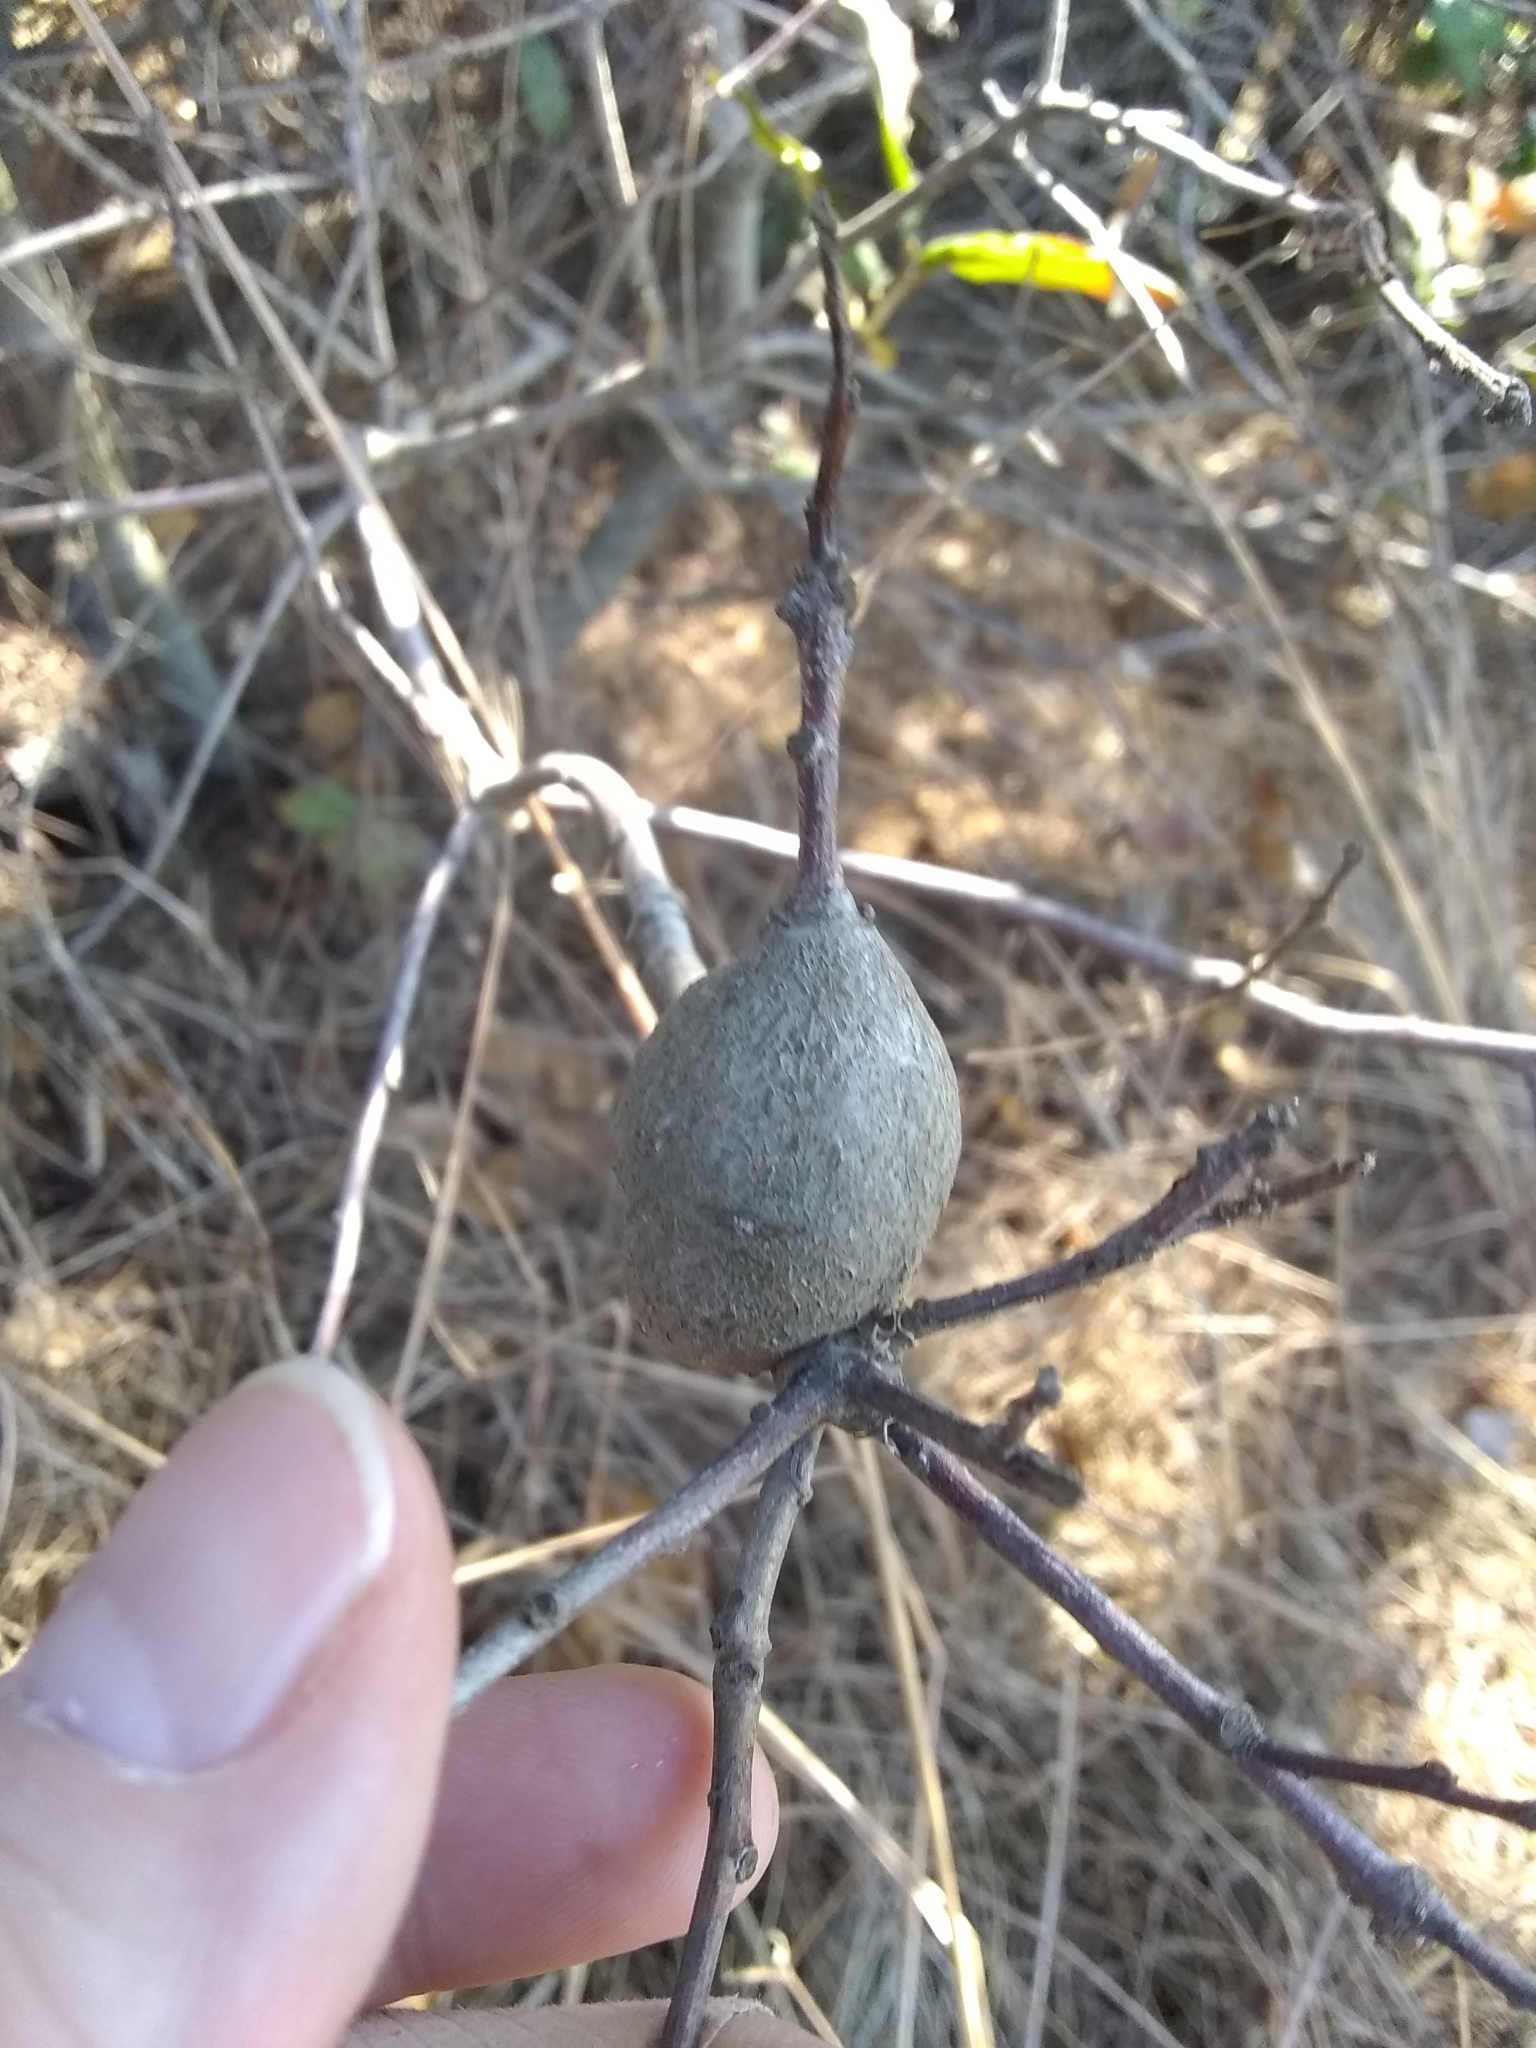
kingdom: Animalia
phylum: Arthropoda
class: Insecta
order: Hymenoptera
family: Cynipidae
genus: Callirhytis
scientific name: Callirhytis
